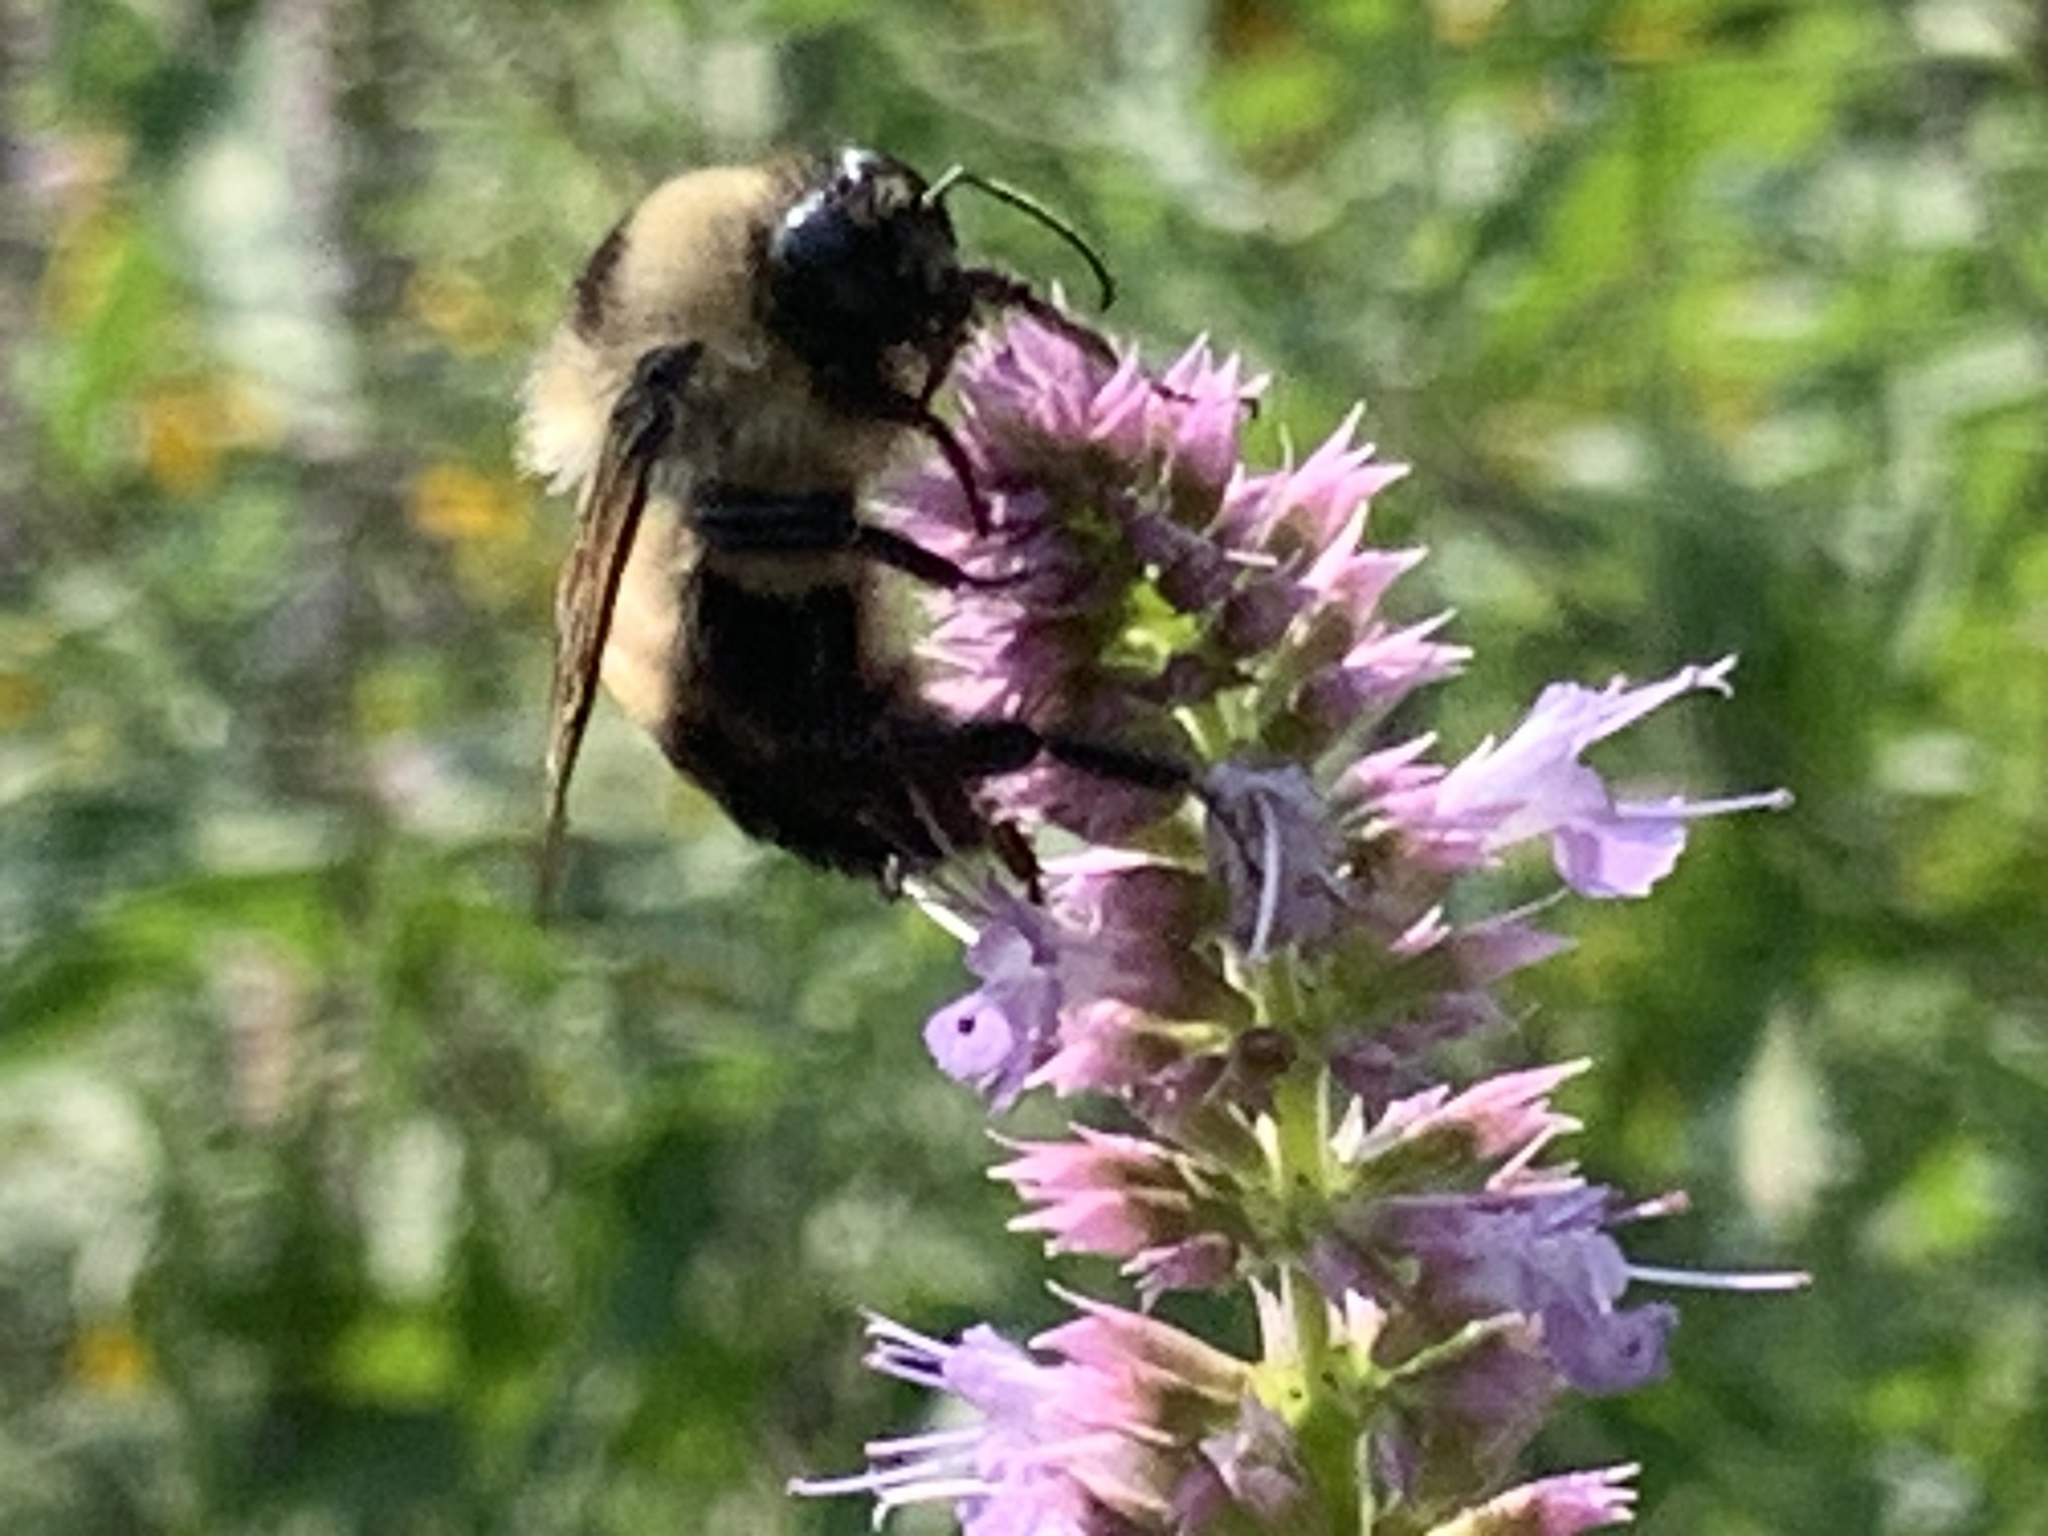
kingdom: Animalia
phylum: Arthropoda
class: Insecta
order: Hymenoptera
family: Apidae
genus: Bombus
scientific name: Bombus griseocollis
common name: Brown-belted bumble bee
